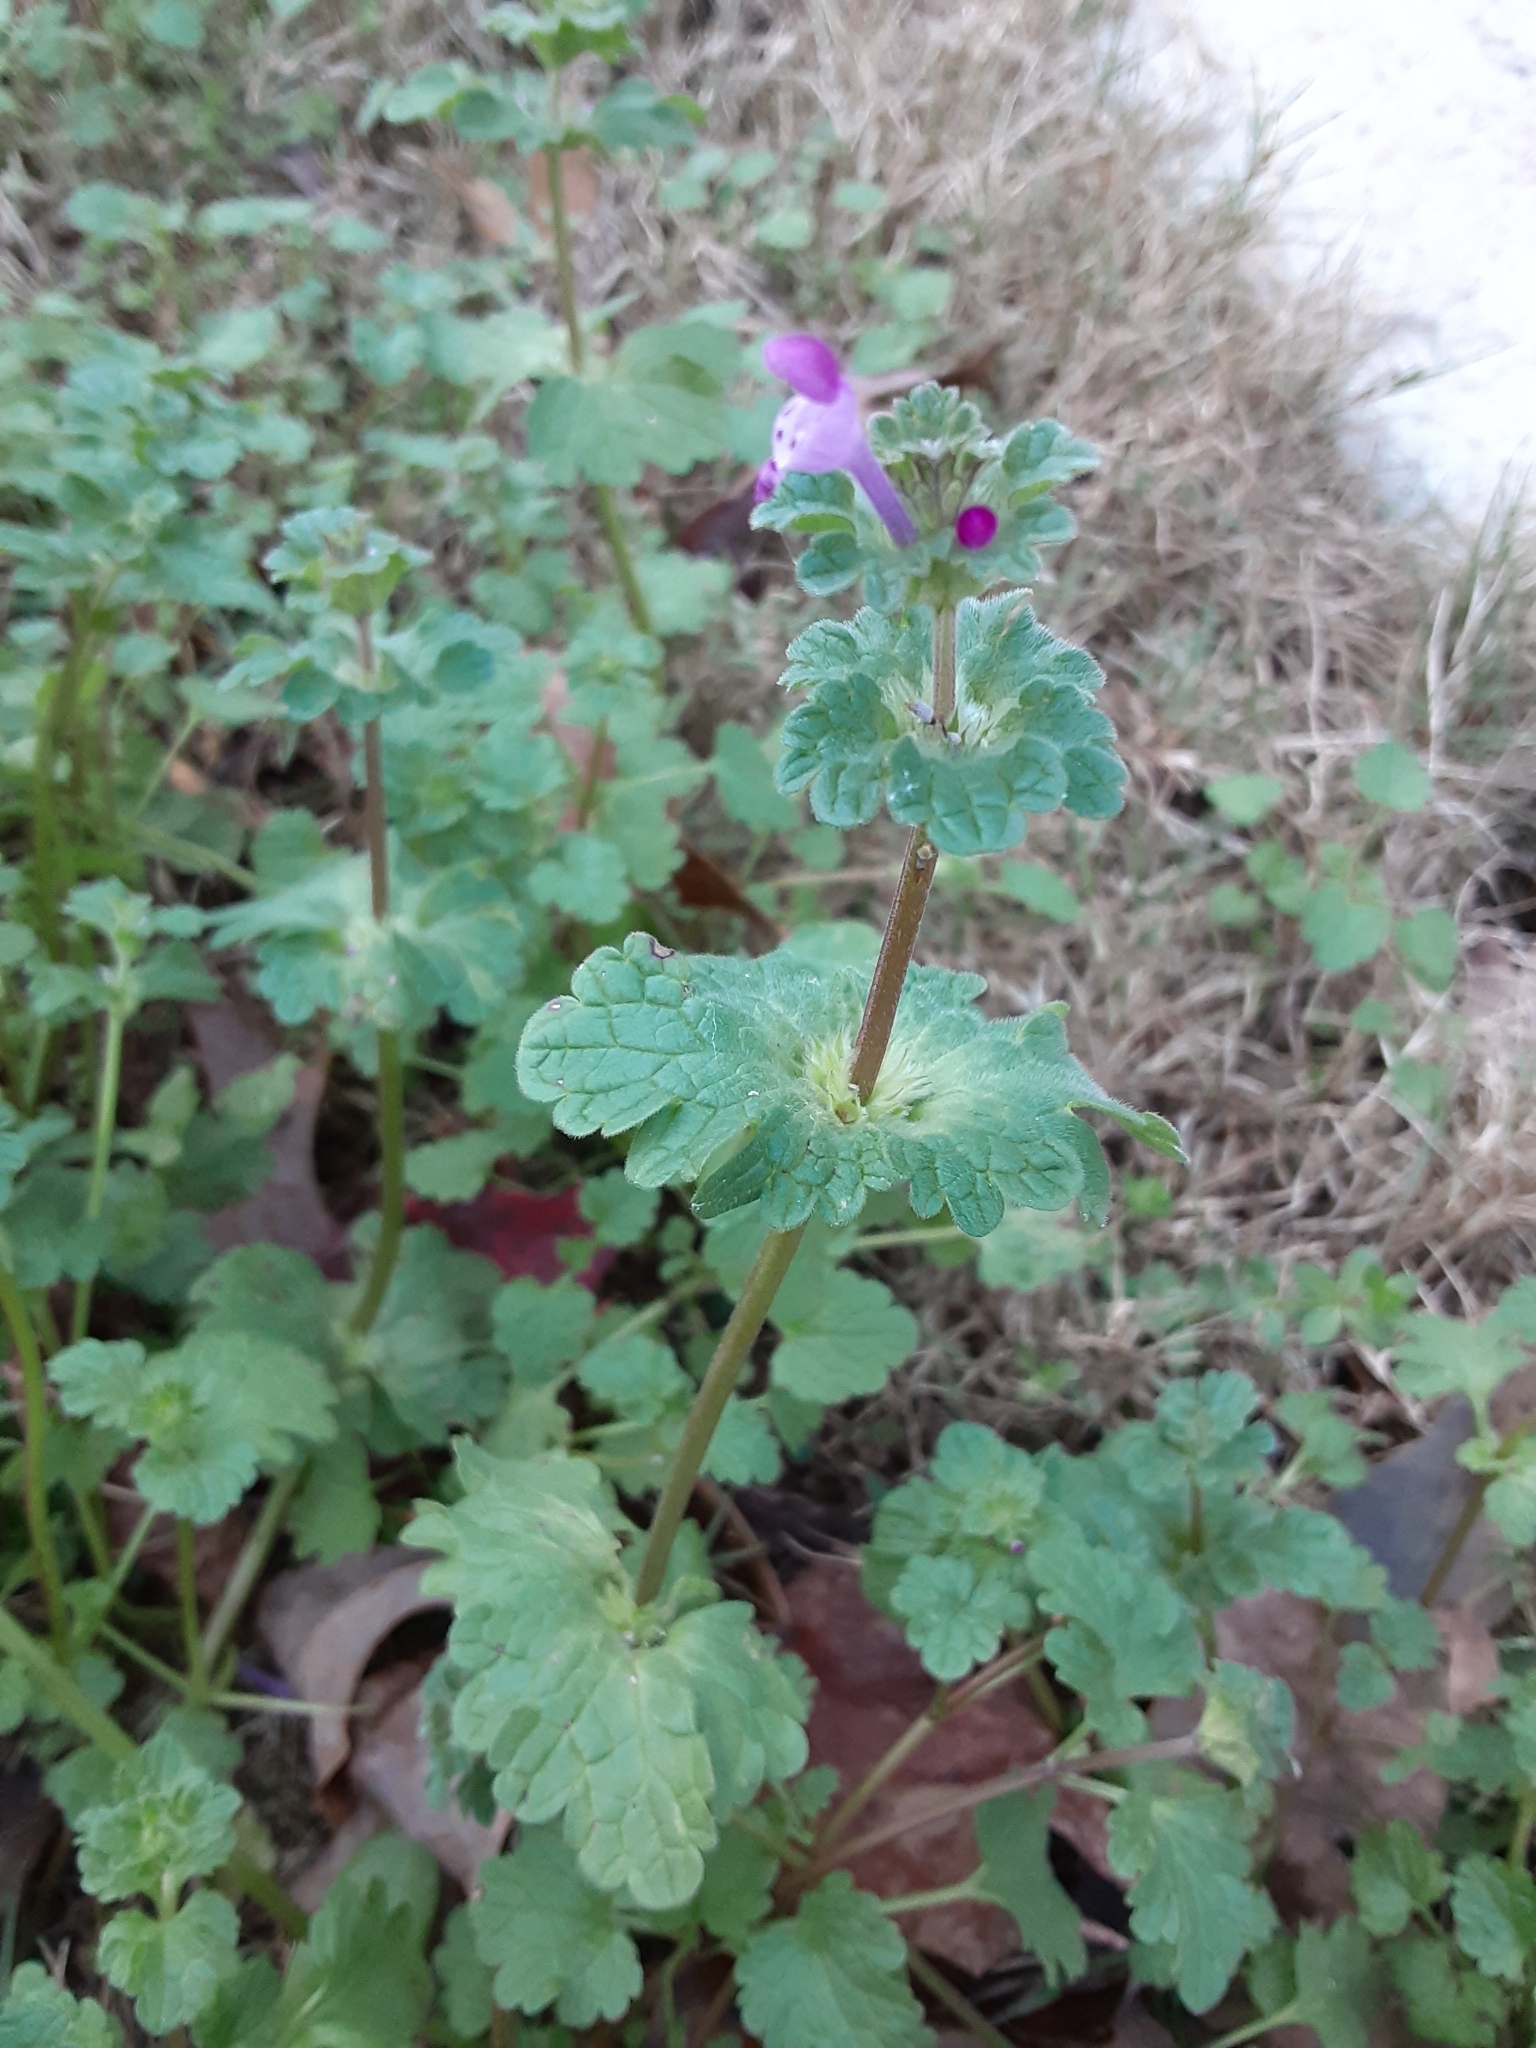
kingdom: Plantae
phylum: Tracheophyta
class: Magnoliopsida
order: Lamiales
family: Lamiaceae
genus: Lamium
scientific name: Lamium amplexicaule
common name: Henbit dead-nettle
